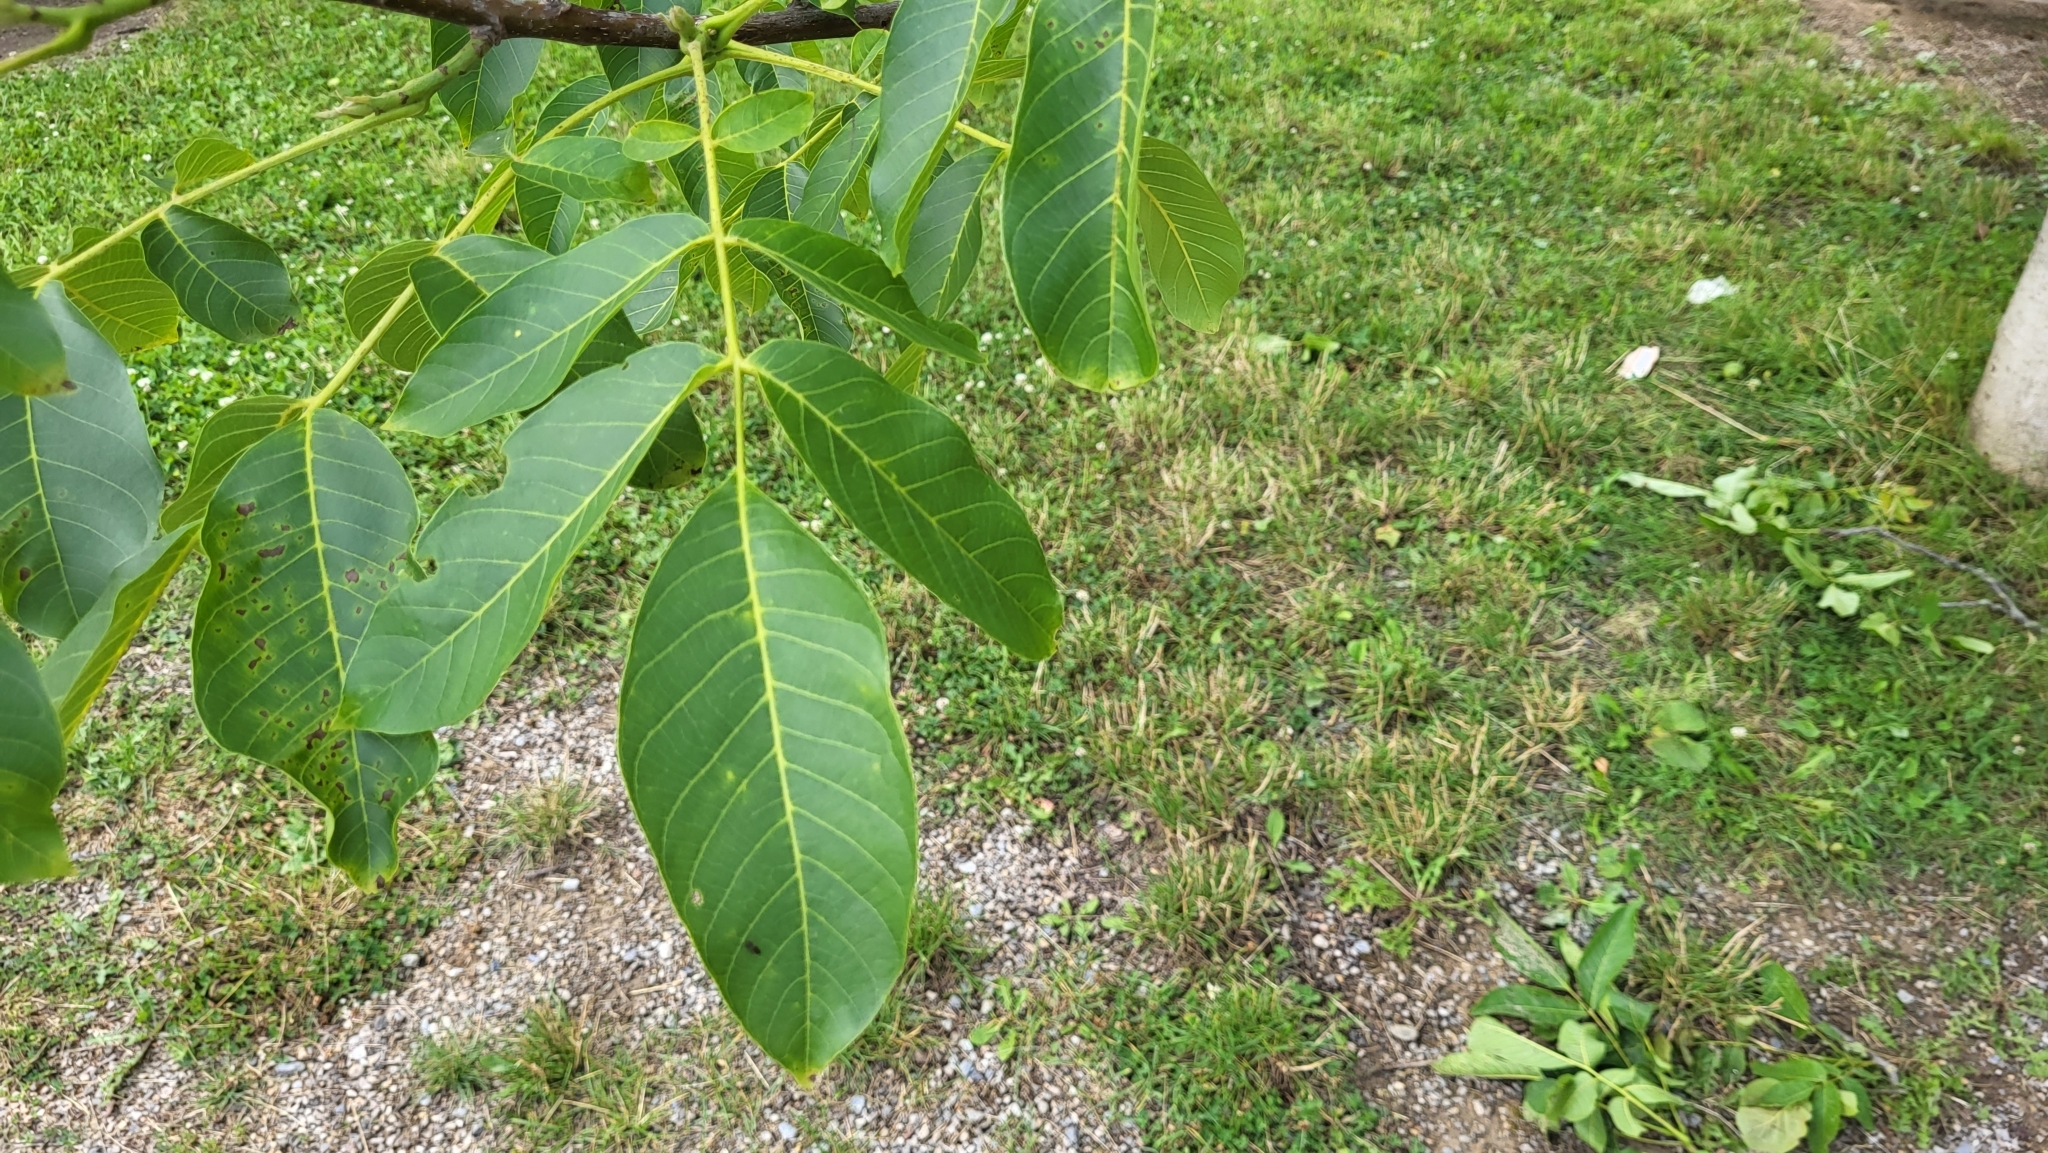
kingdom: Plantae
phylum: Tracheophyta
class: Magnoliopsida
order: Fagales
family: Juglandaceae
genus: Juglans
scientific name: Juglans regia
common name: Walnut
